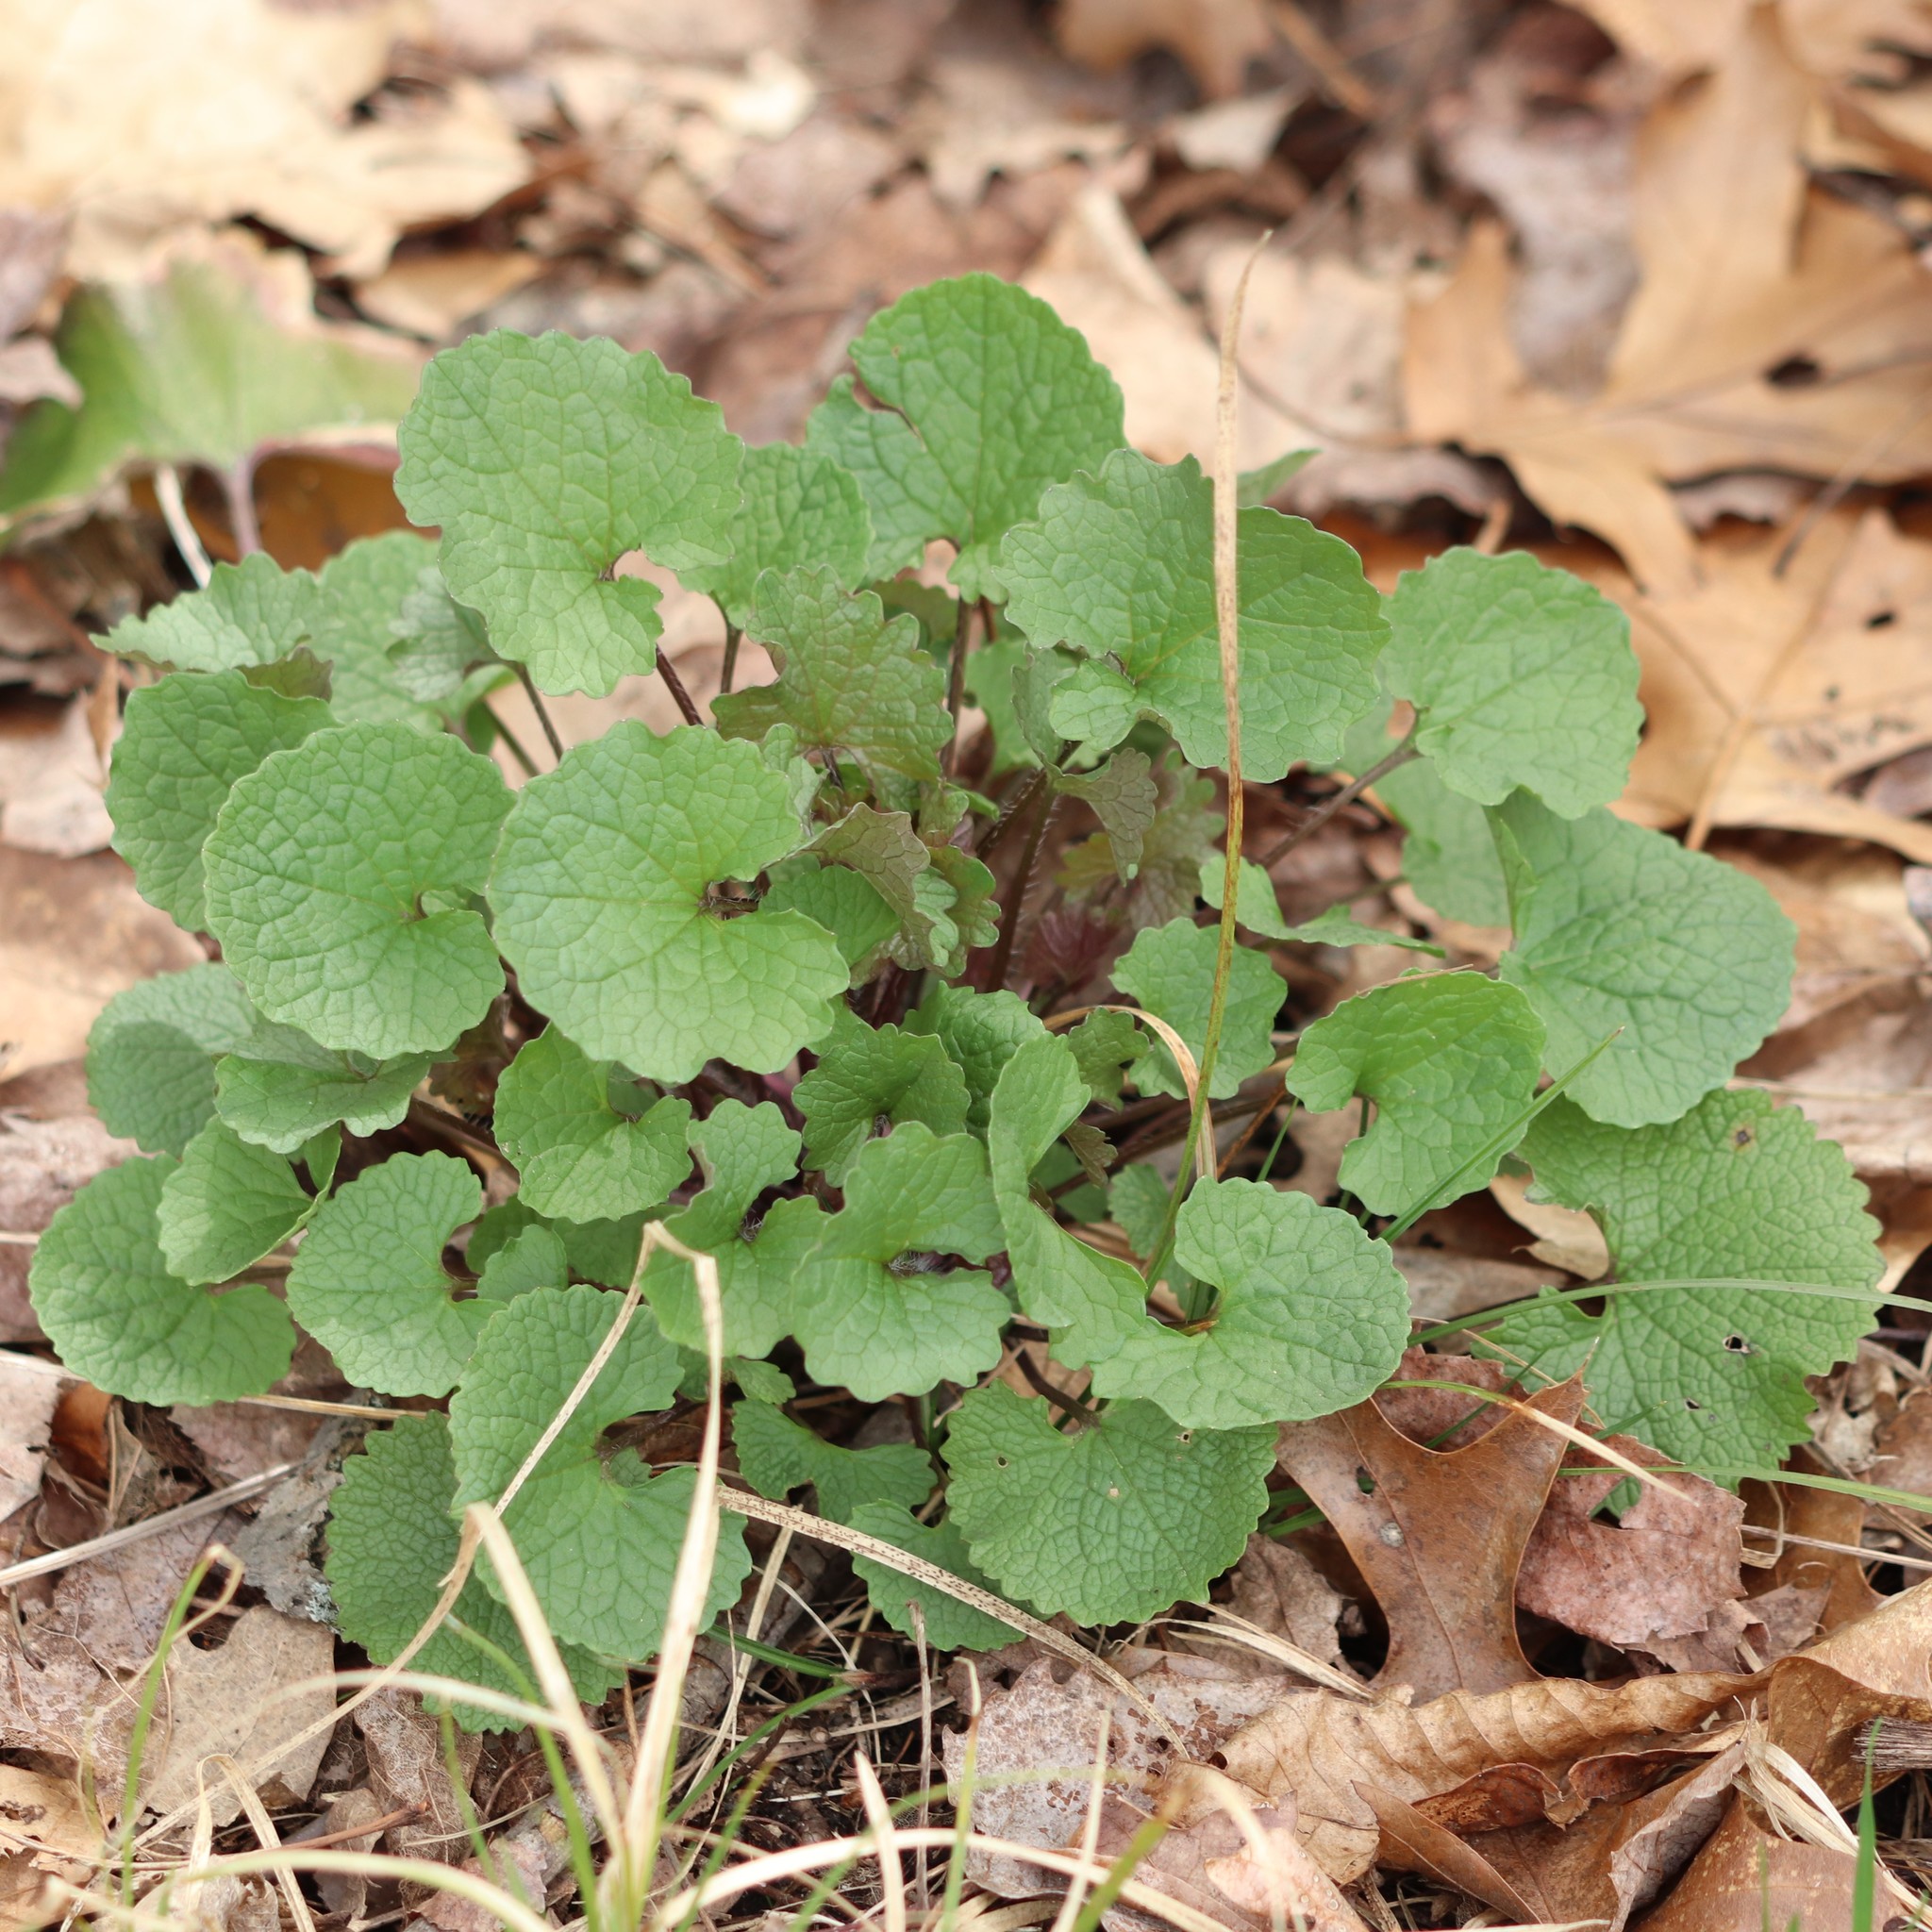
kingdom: Plantae
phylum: Tracheophyta
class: Magnoliopsida
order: Brassicales
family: Brassicaceae
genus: Alliaria
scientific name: Alliaria petiolata
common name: Garlic mustard
